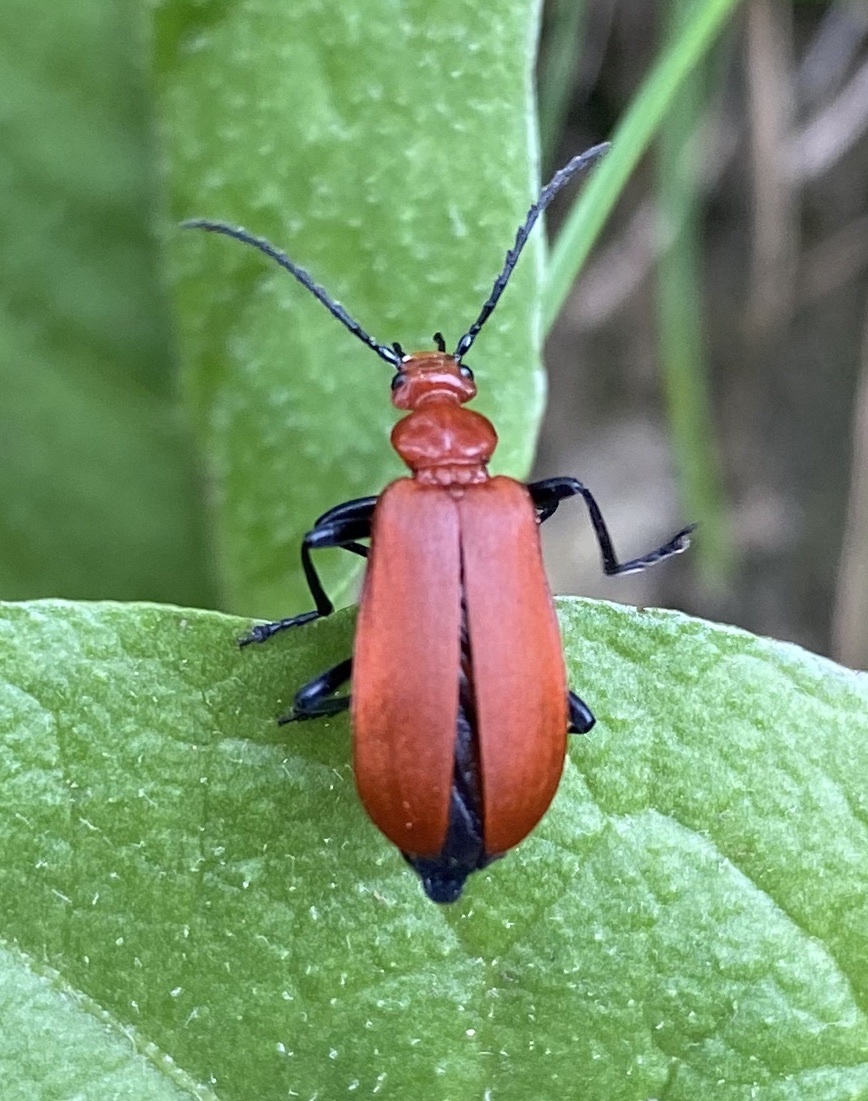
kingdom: Animalia
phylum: Arthropoda
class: Insecta
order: Coleoptera
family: Pyrochroidae
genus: Pyrochroa
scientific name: Pyrochroa serraticornis
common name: Red-headed cardinal beetle
